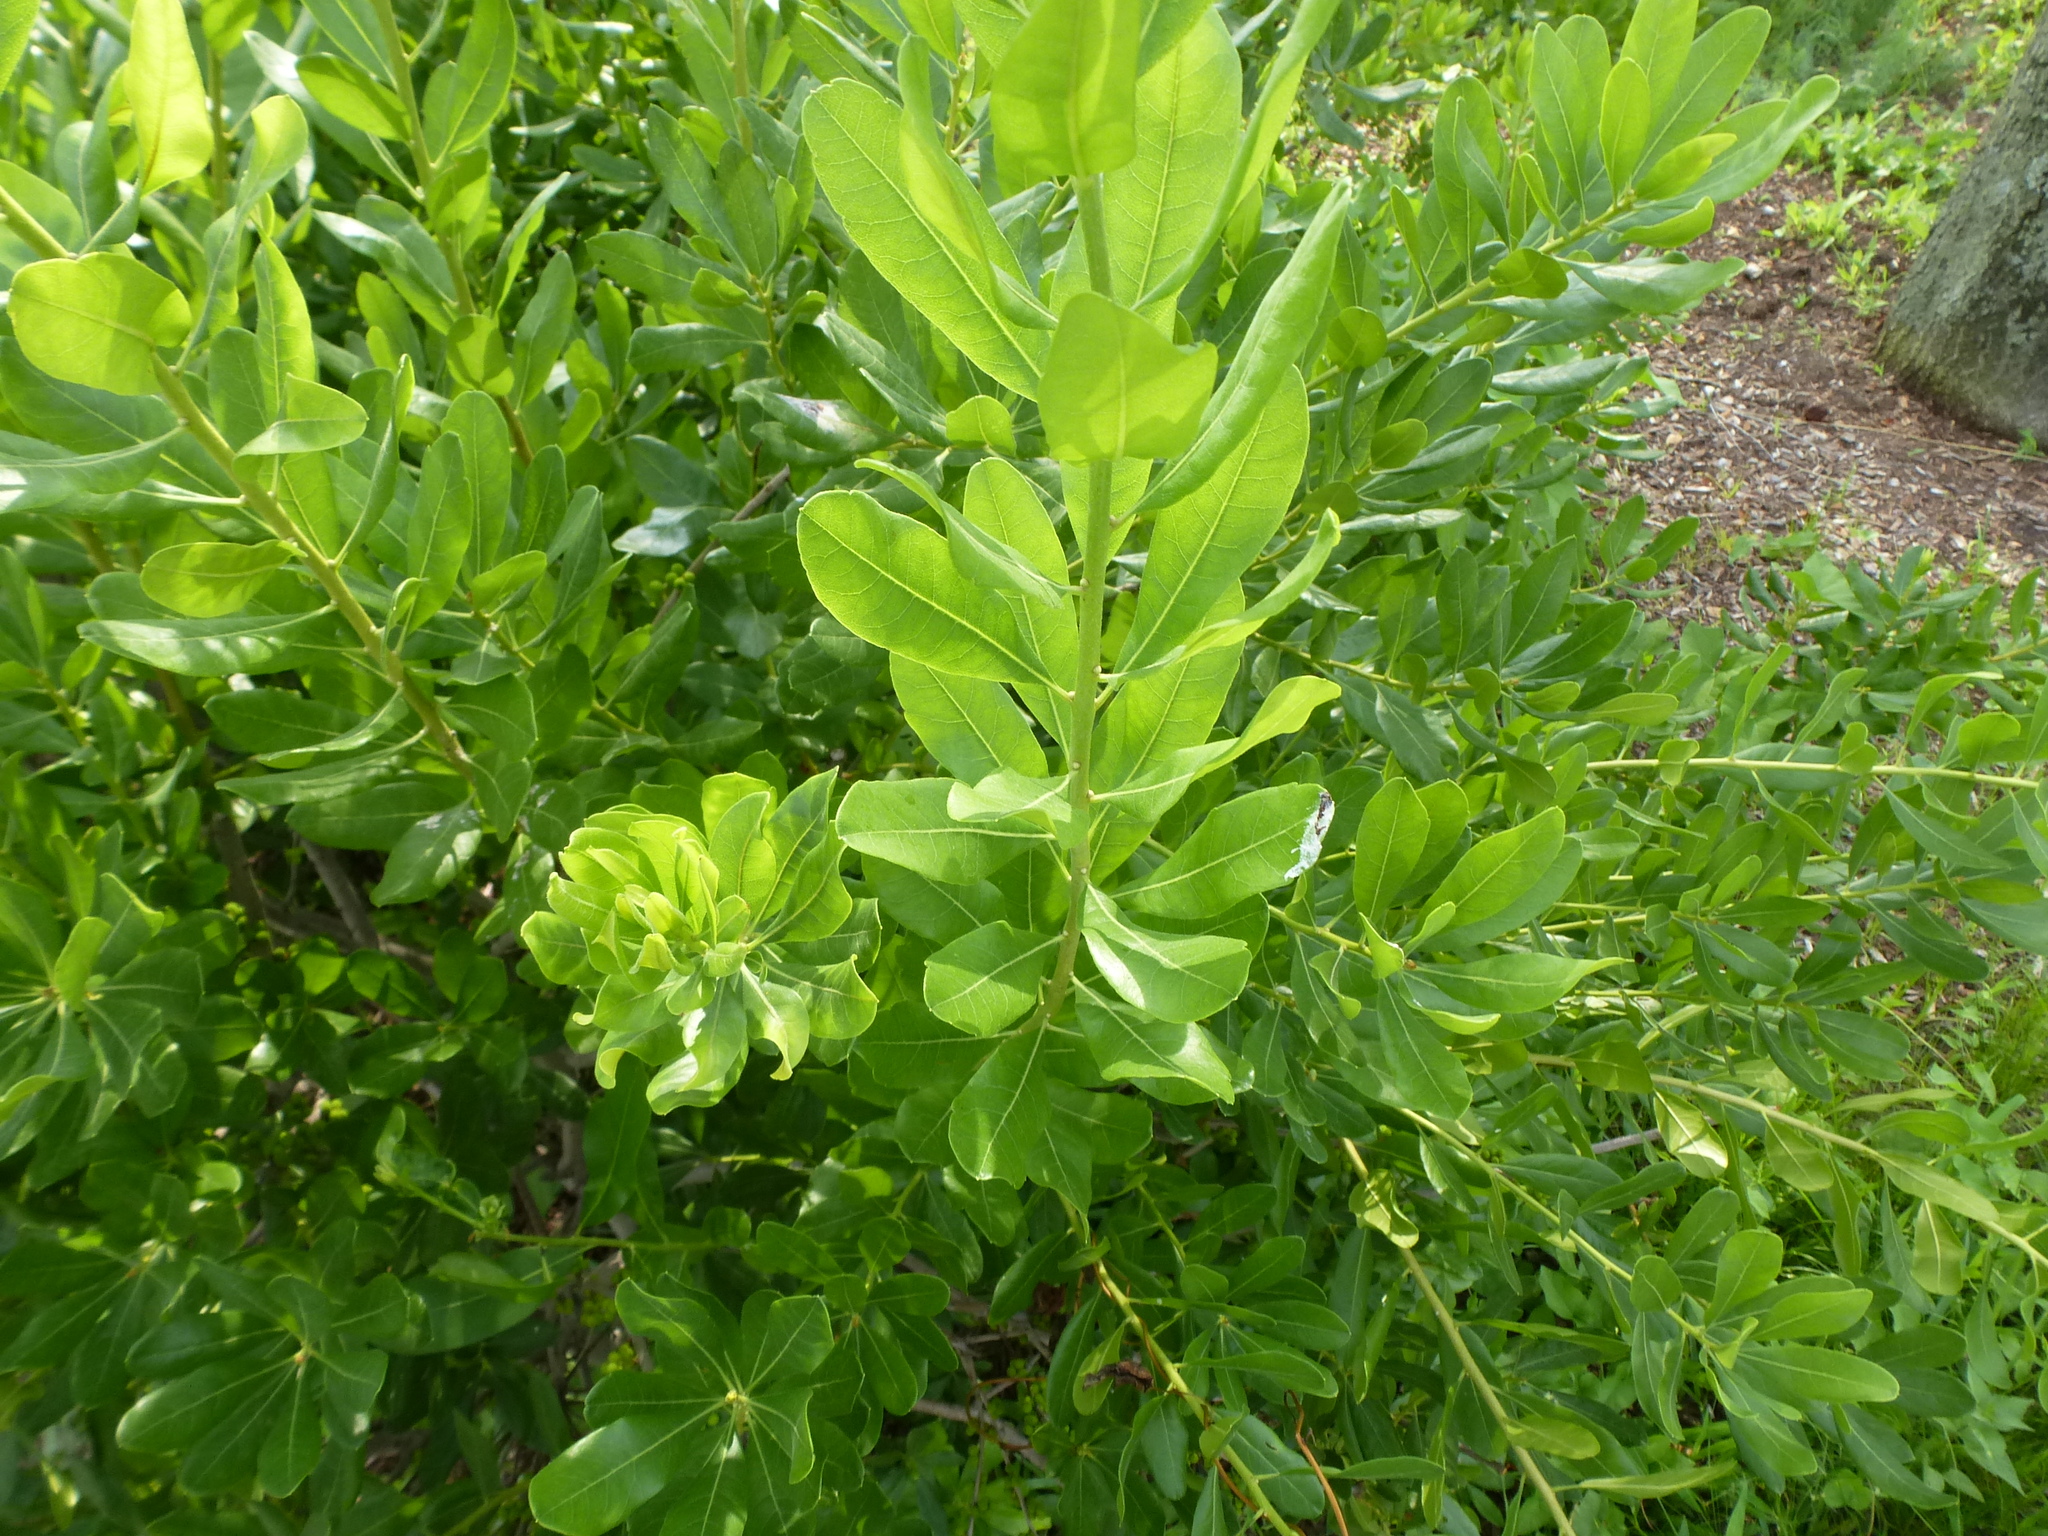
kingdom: Plantae
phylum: Tracheophyta
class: Magnoliopsida
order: Fagales
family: Myricaceae
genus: Morella
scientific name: Morella pensylvanica
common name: Northern bayberry
